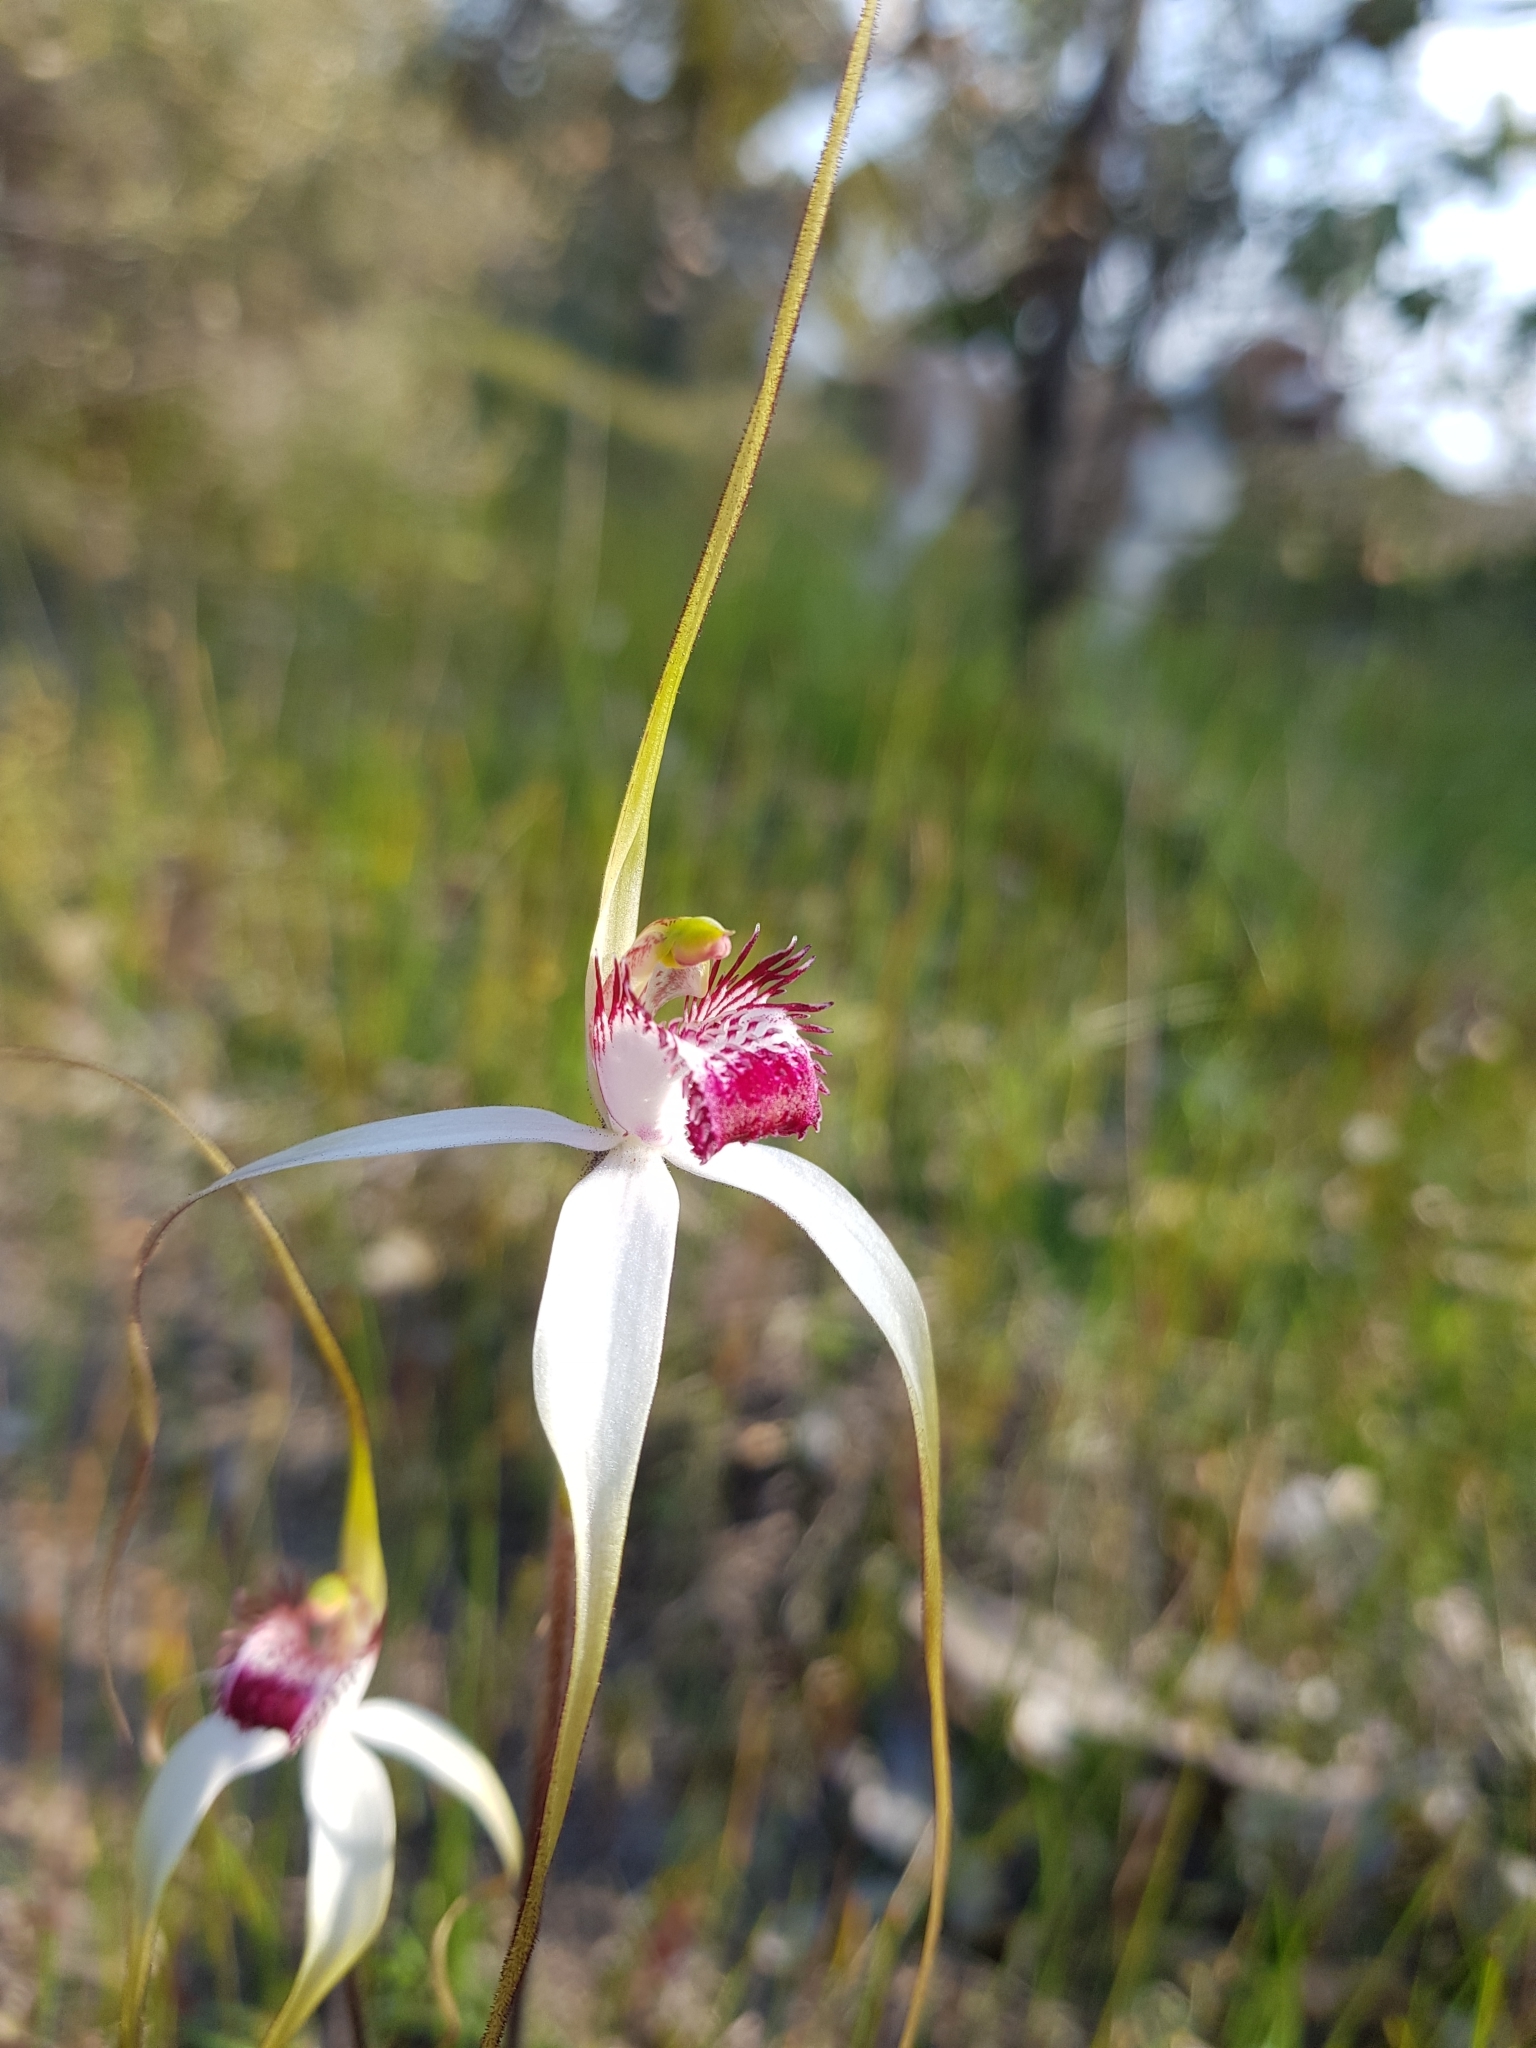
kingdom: Plantae
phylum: Tracheophyta
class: Liliopsida
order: Asparagales
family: Orchidaceae
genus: Caladenia
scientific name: Caladenia exserta
